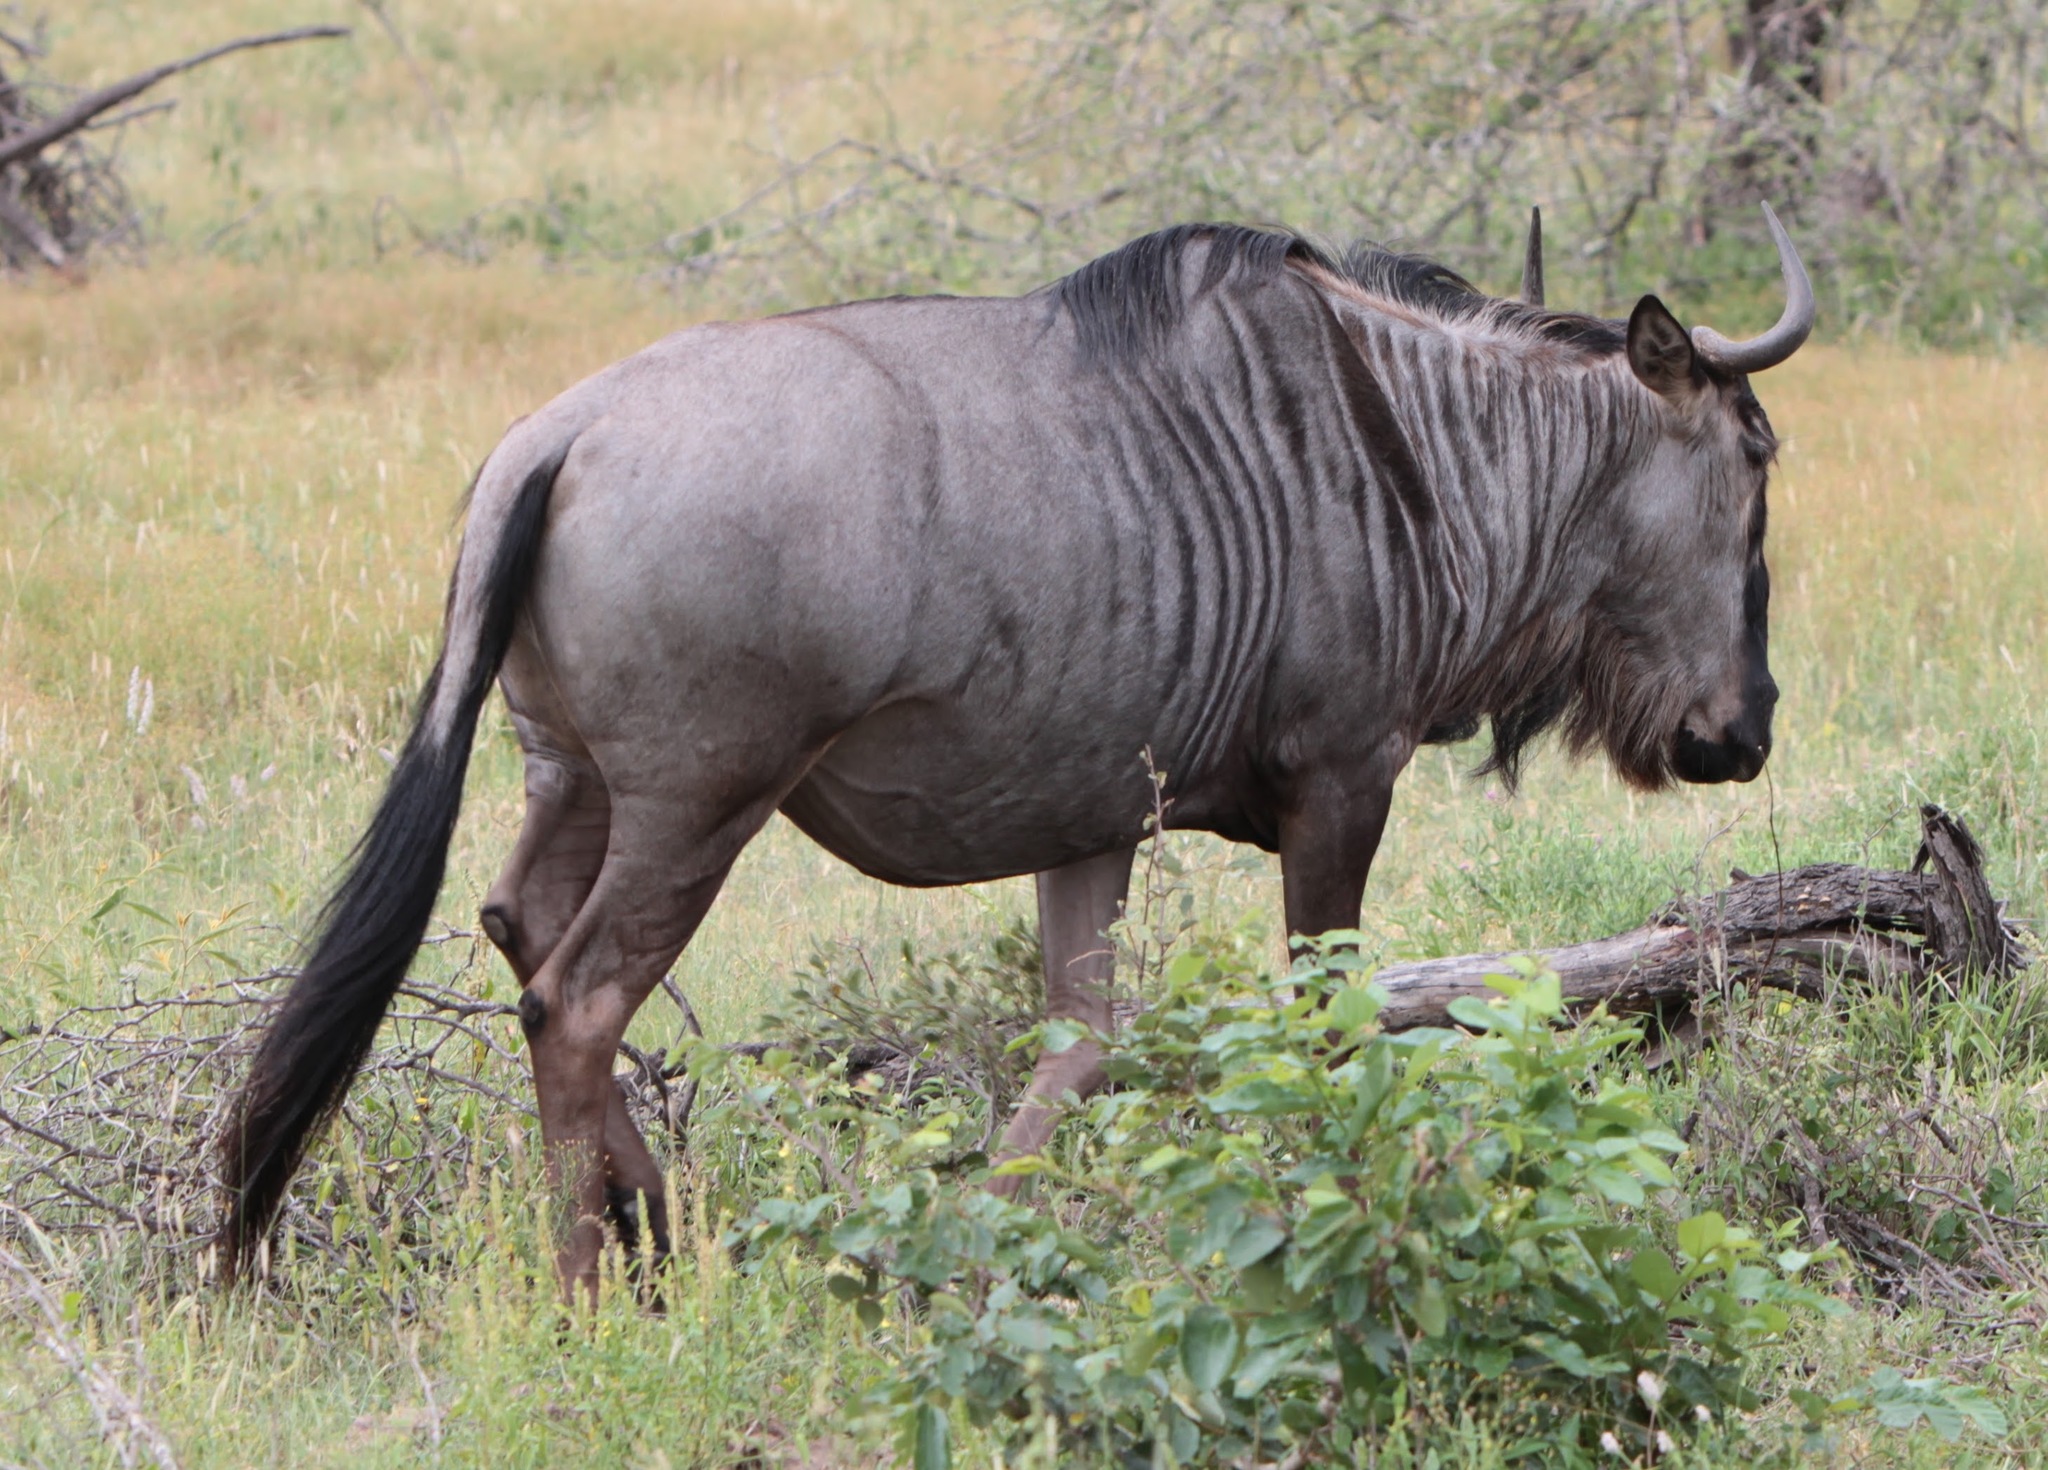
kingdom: Animalia
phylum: Chordata
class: Mammalia
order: Artiodactyla
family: Bovidae
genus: Connochaetes
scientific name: Connochaetes taurinus
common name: Blue wildebeest
